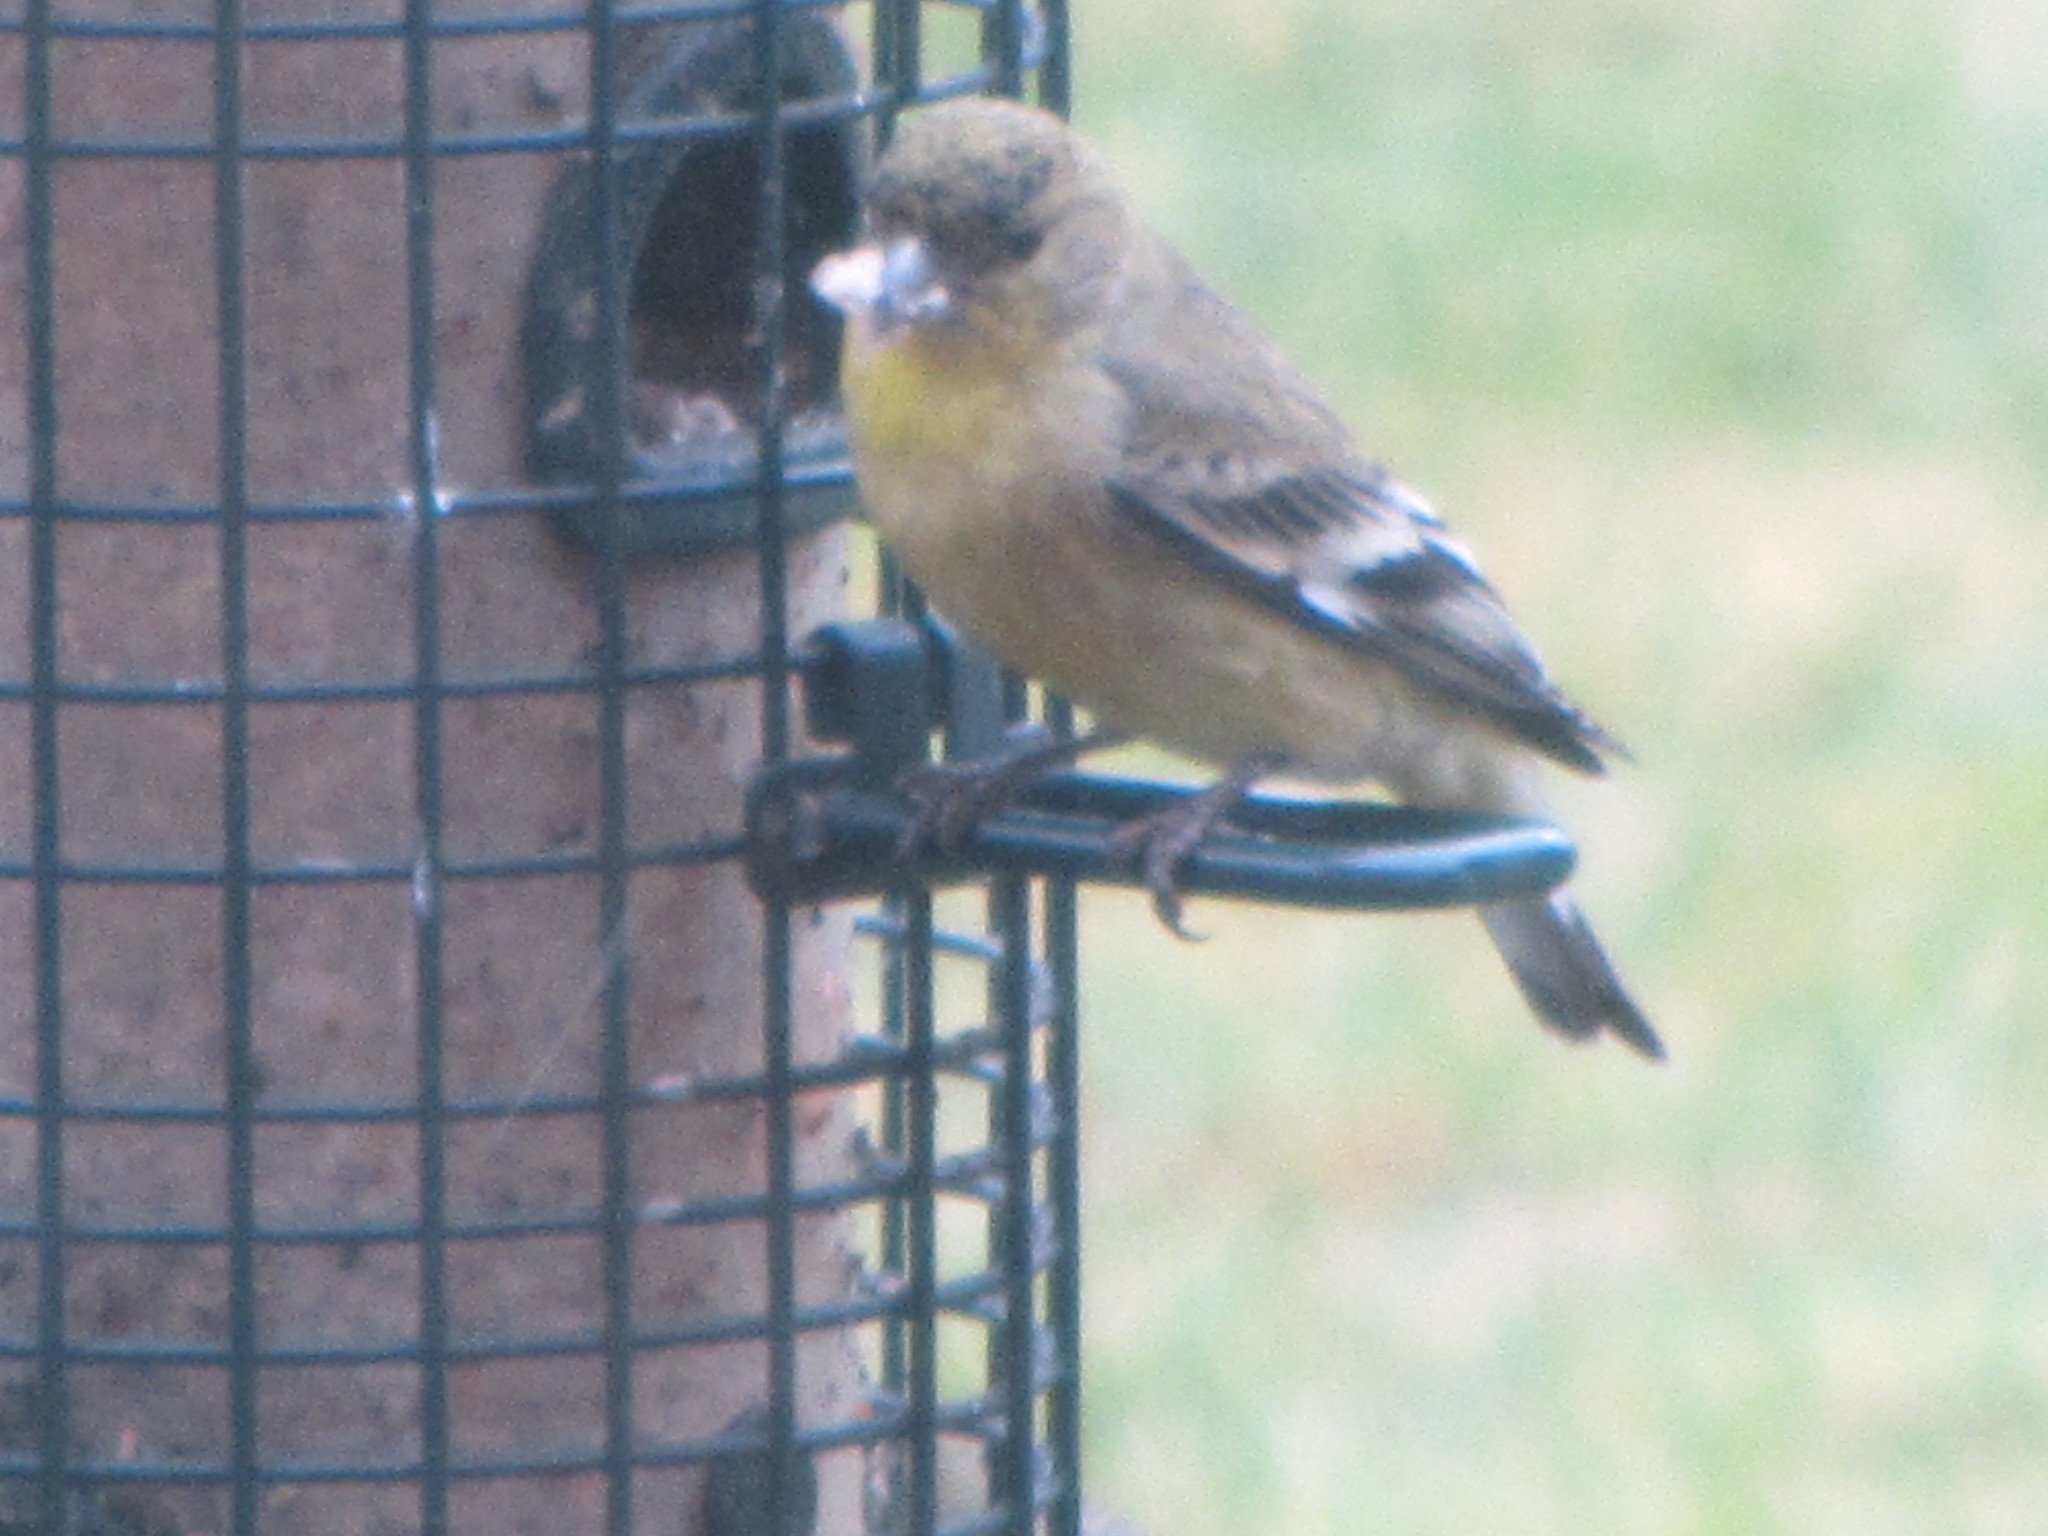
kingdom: Animalia
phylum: Chordata
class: Aves
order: Passeriformes
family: Fringillidae
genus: Spinus
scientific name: Spinus psaltria
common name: Lesser goldfinch
